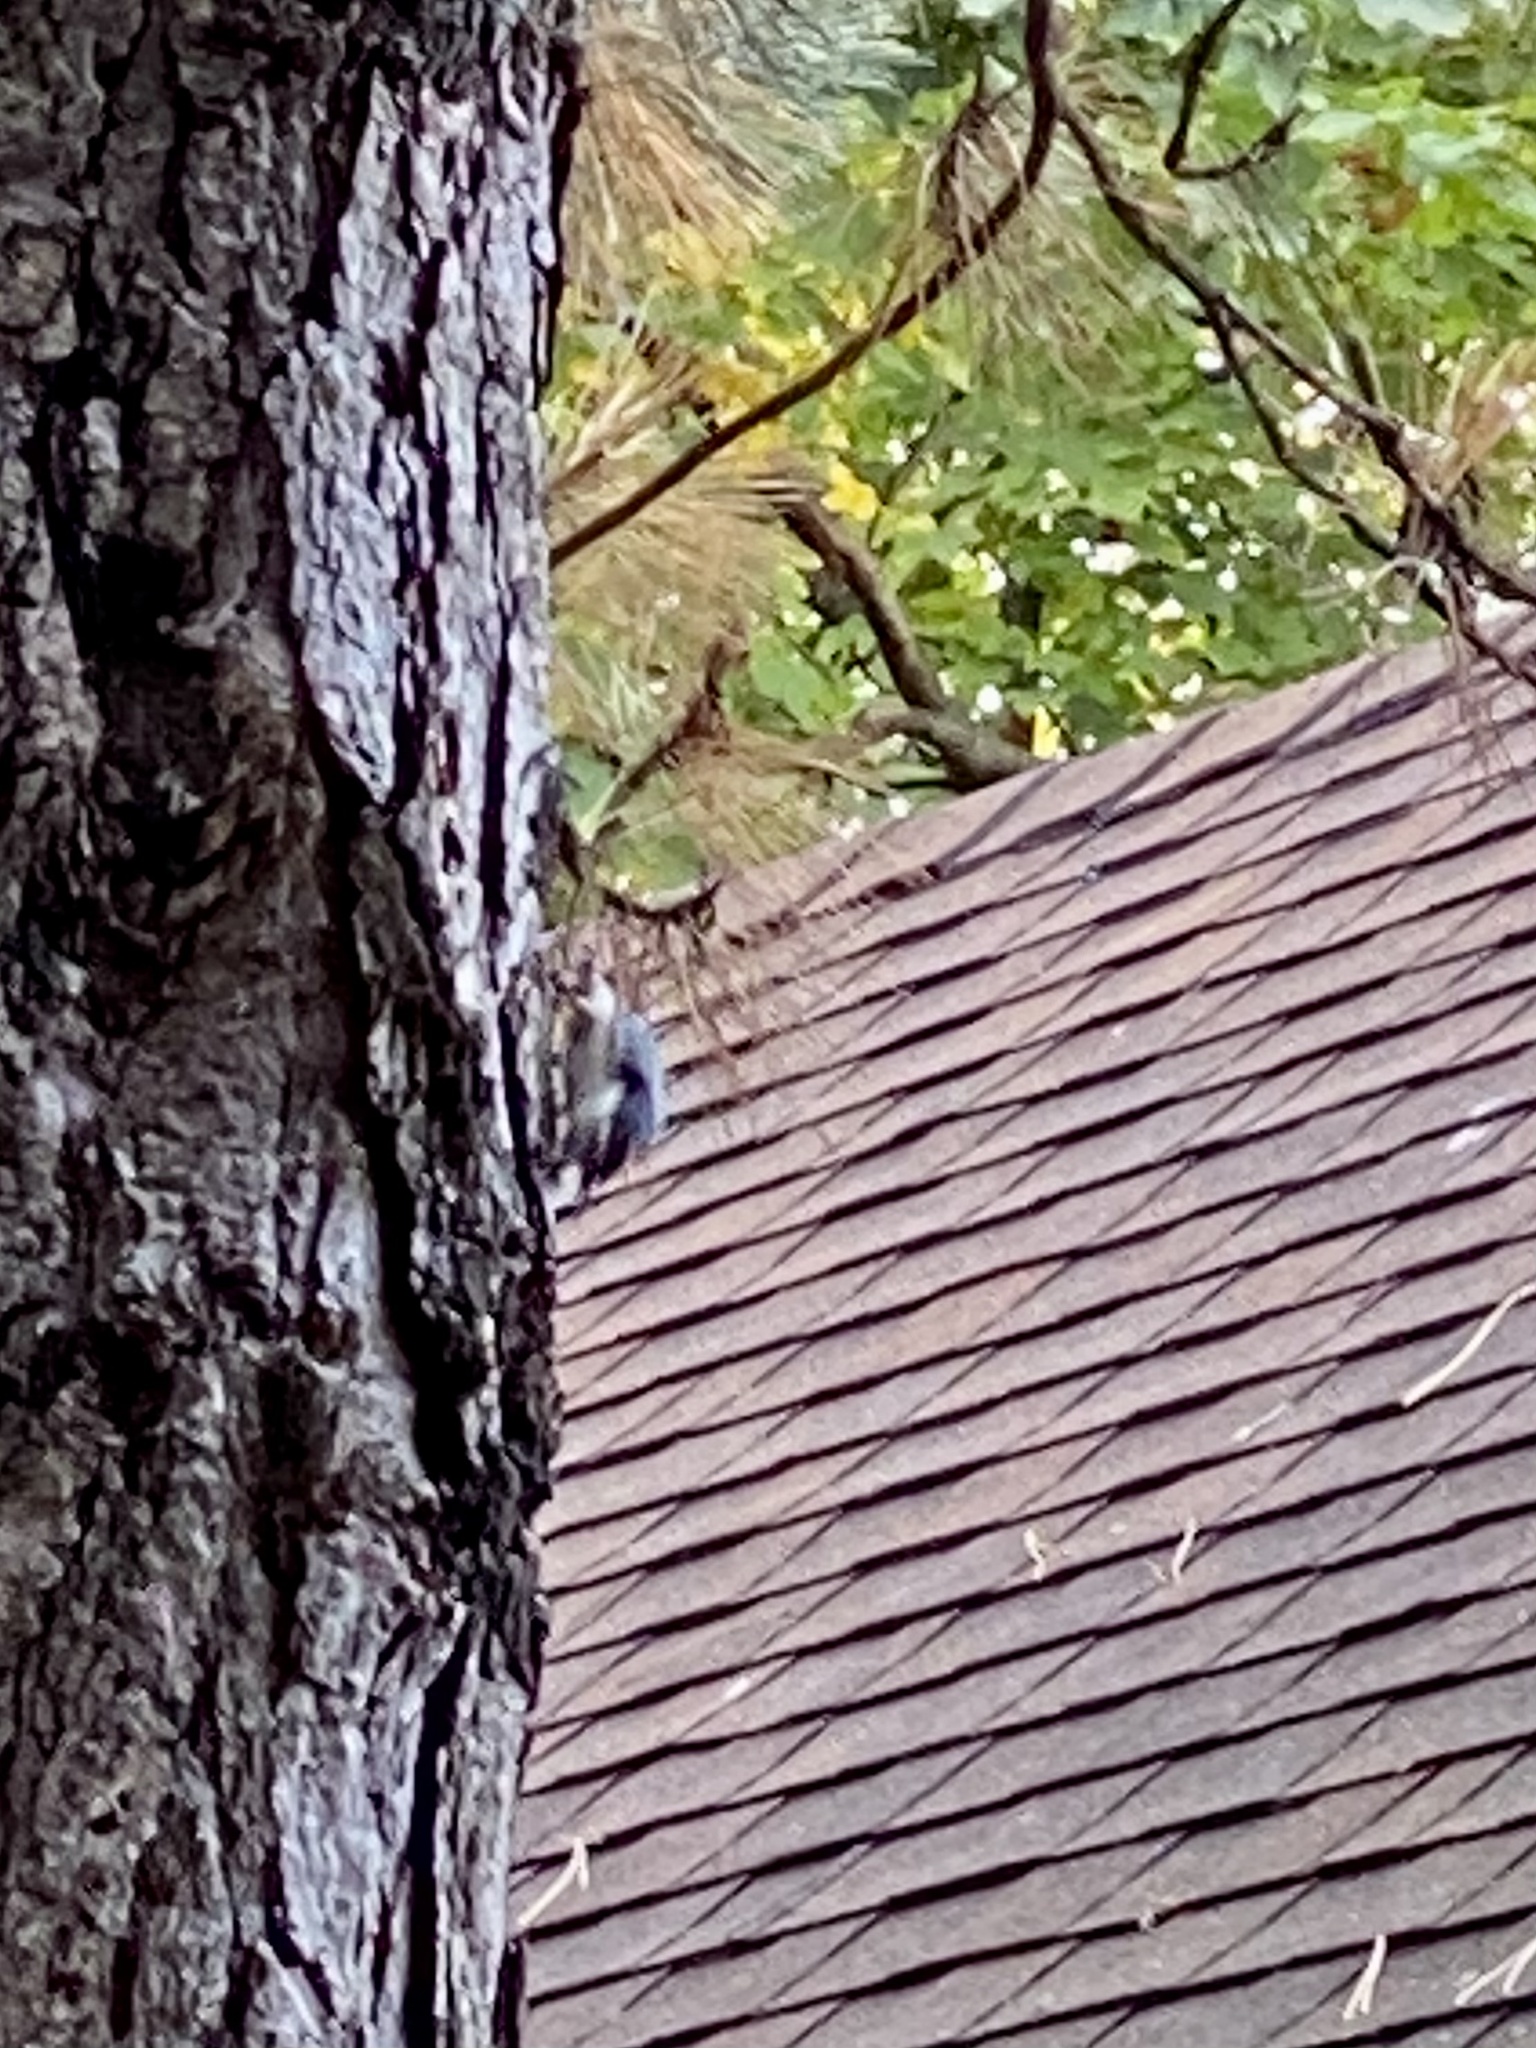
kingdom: Animalia
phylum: Chordata
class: Aves
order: Passeriformes
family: Sittidae
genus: Sitta
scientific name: Sitta carolinensis
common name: White-breasted nuthatch
